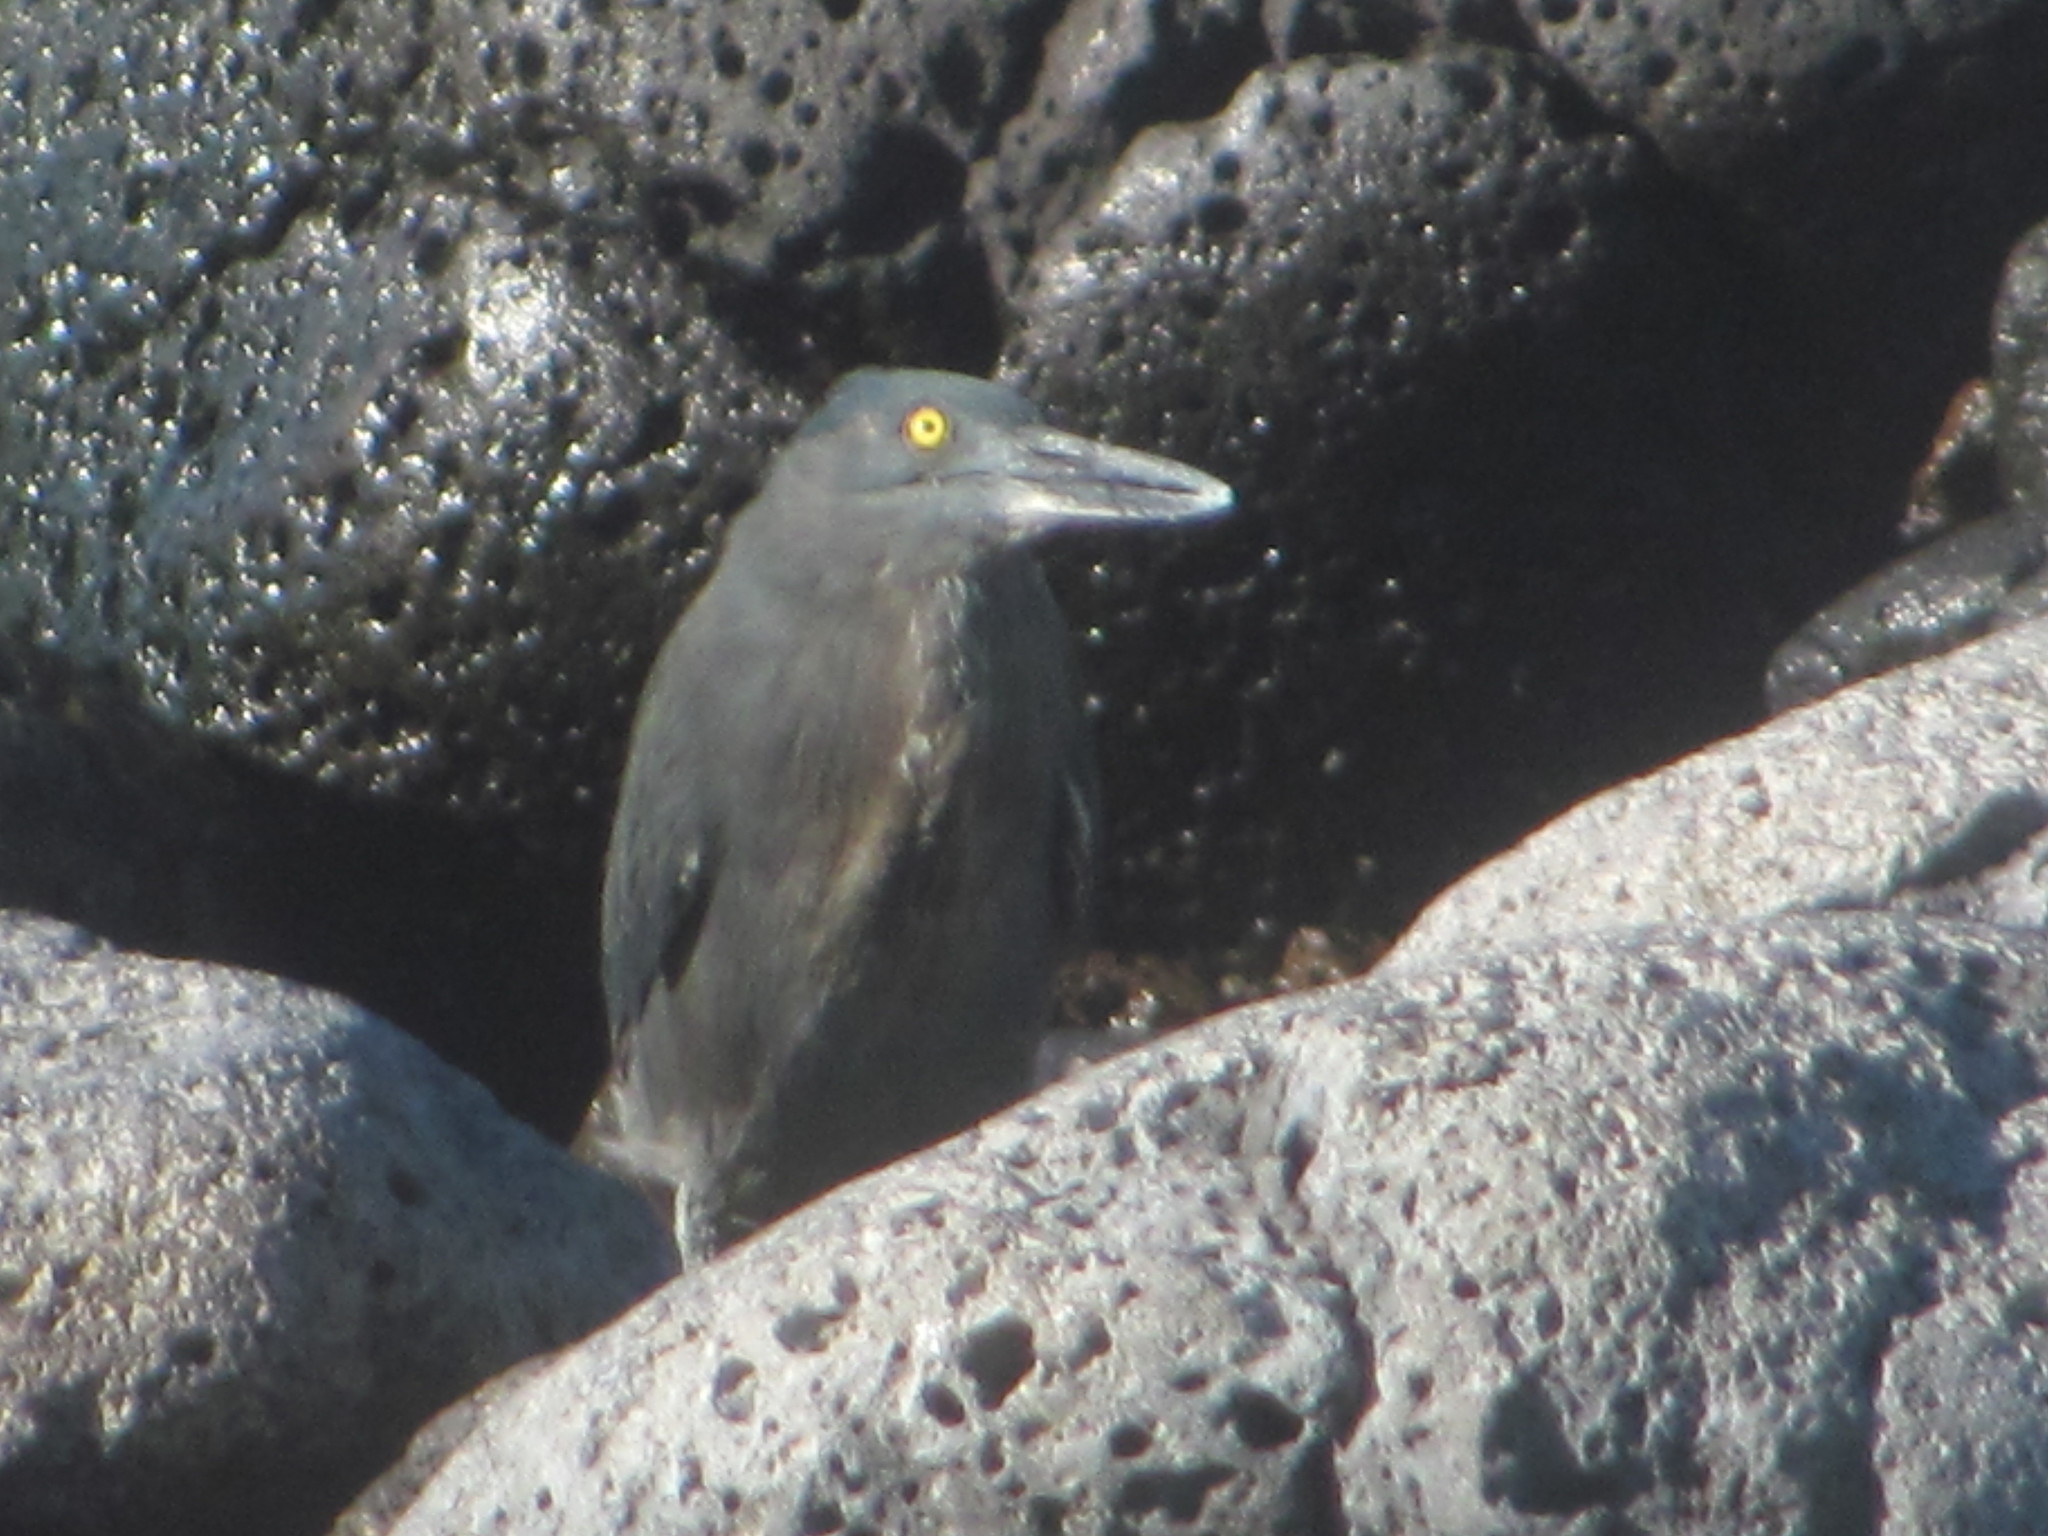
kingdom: Animalia
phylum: Chordata
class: Aves
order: Pelecaniformes
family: Ardeidae
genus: Butorides
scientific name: Butorides striata
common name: Striated heron
